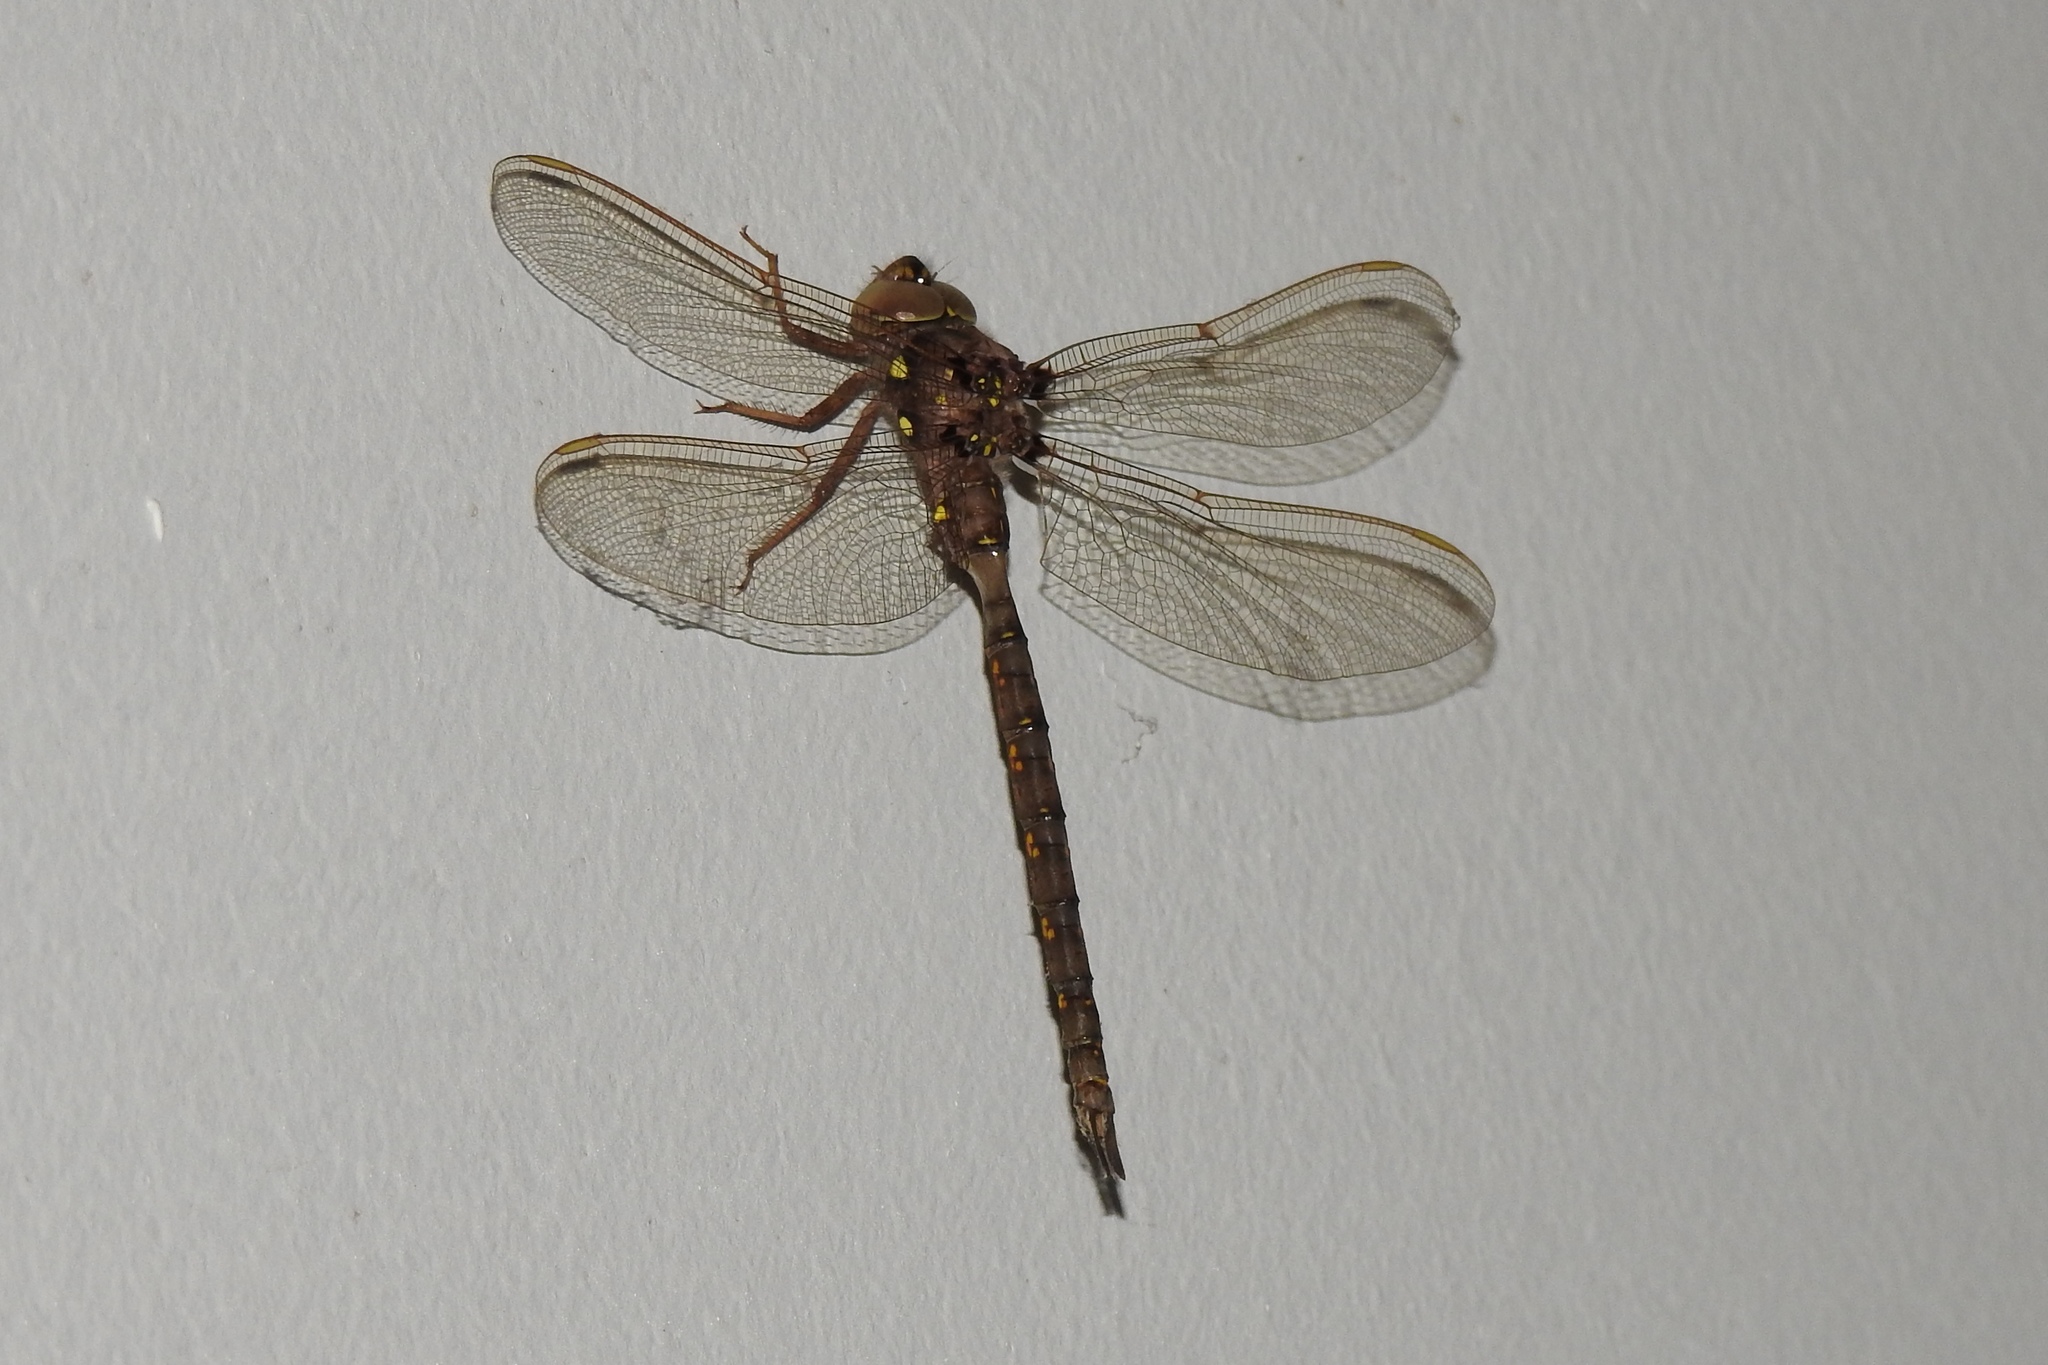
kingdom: Animalia
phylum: Arthropoda
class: Insecta
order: Odonata
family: Aeshnidae
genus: Boyeria
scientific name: Boyeria vinosa
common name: Fawn darner
